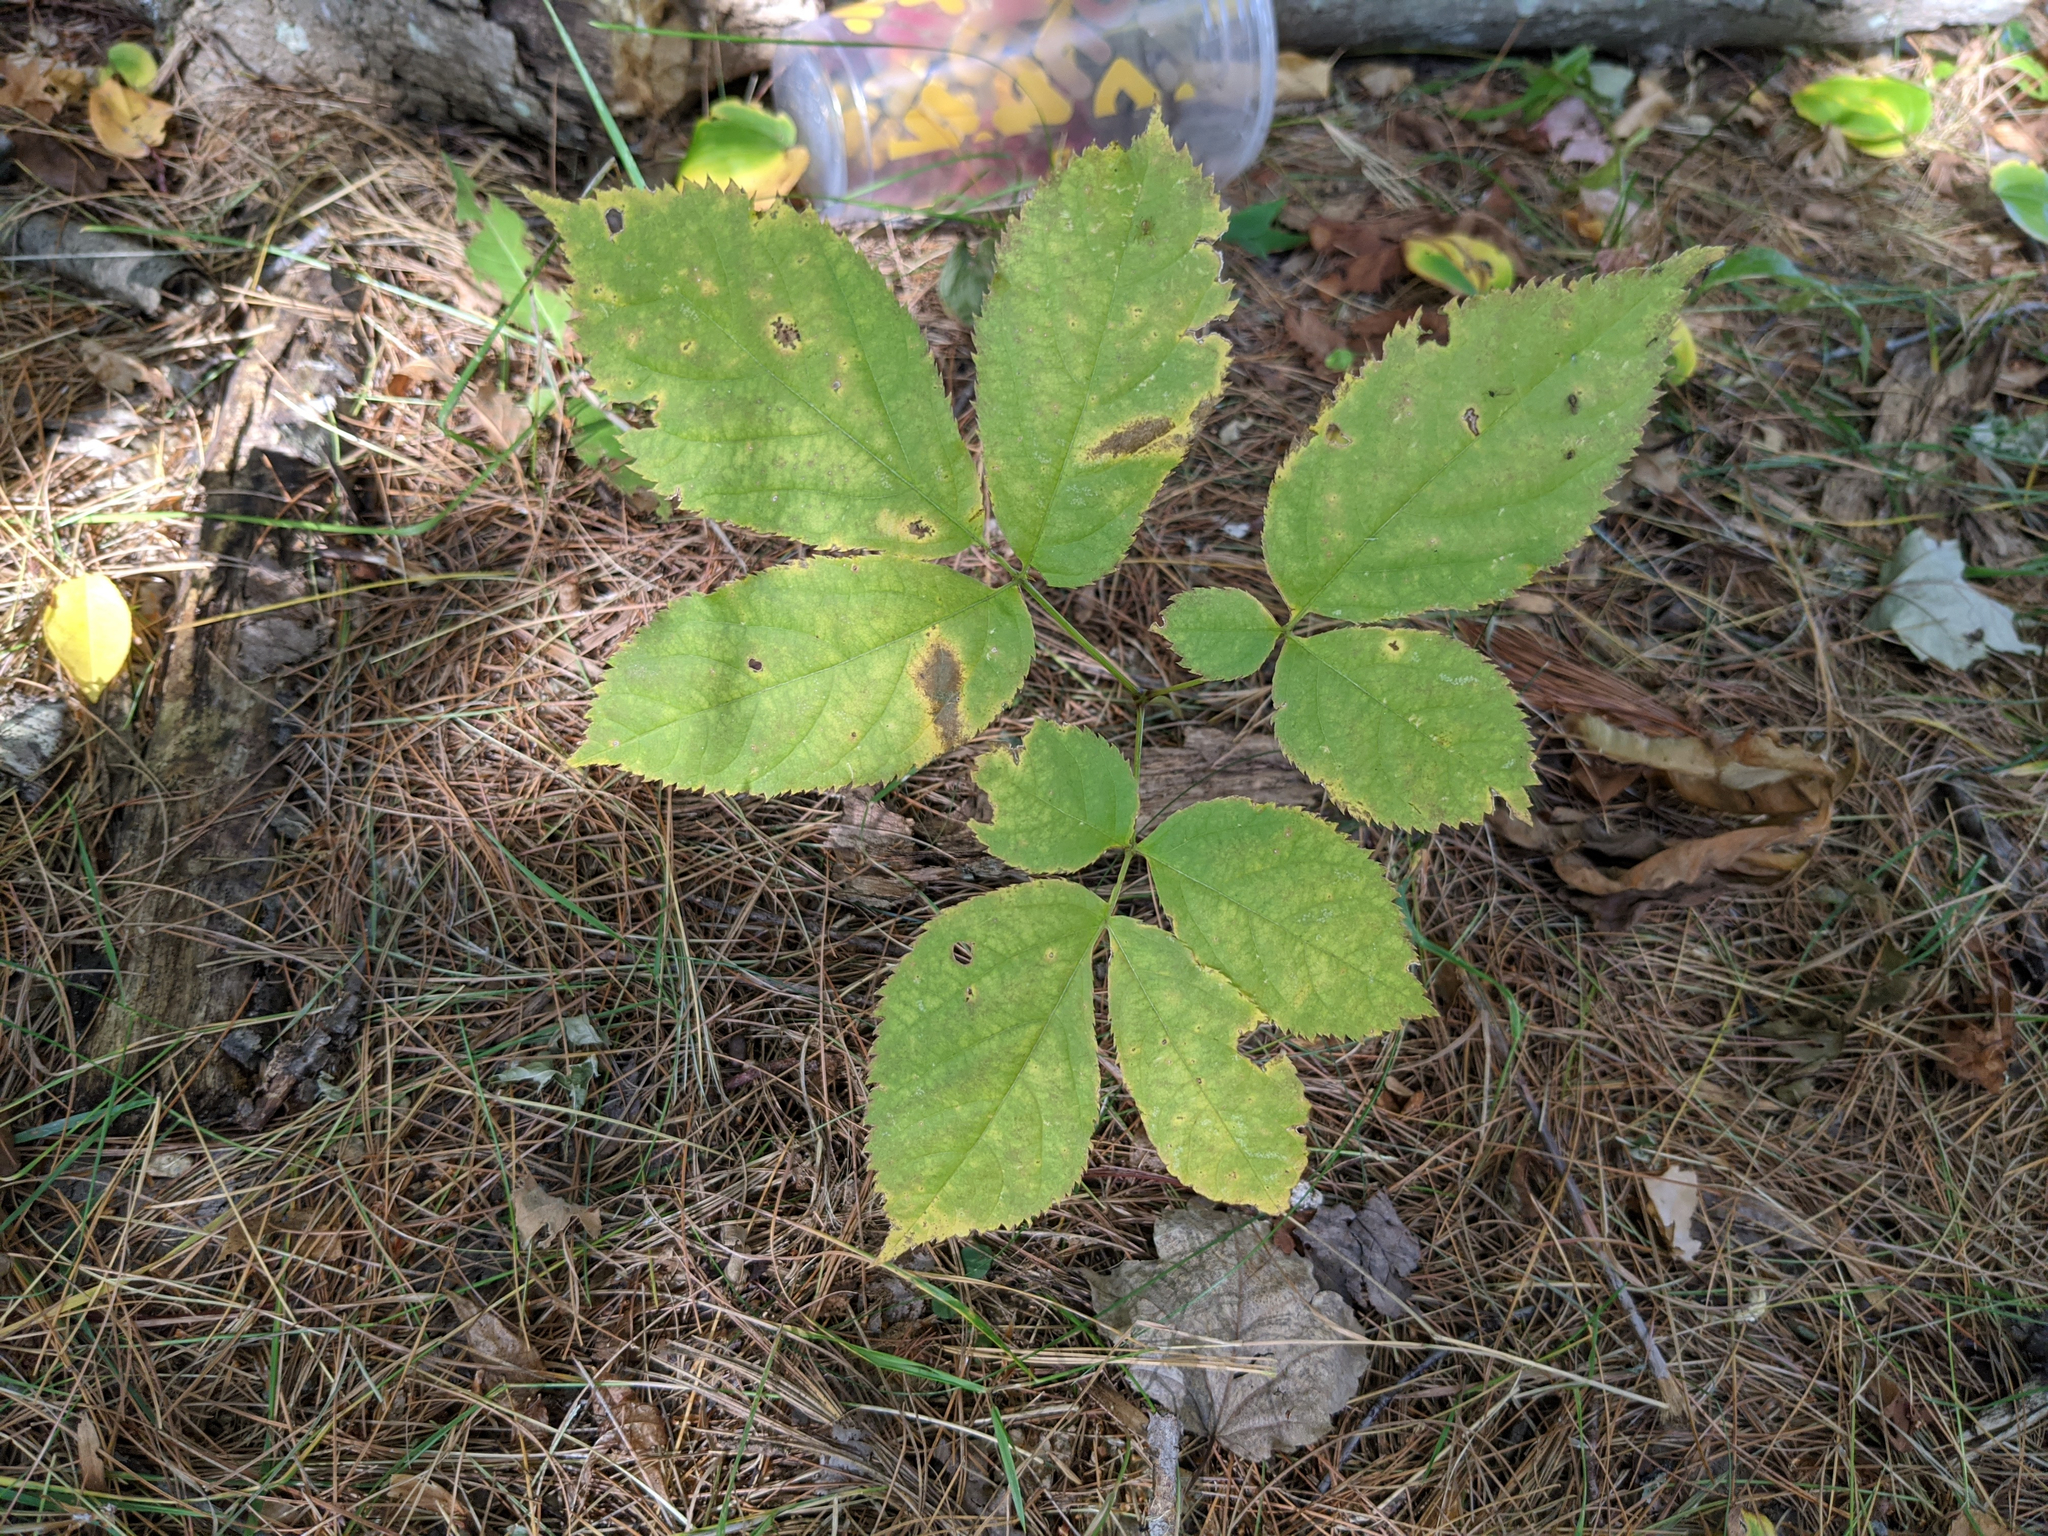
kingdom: Plantae
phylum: Tracheophyta
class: Magnoliopsida
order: Apiales
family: Araliaceae
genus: Aralia
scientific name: Aralia nudicaulis
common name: Wild sarsaparilla
